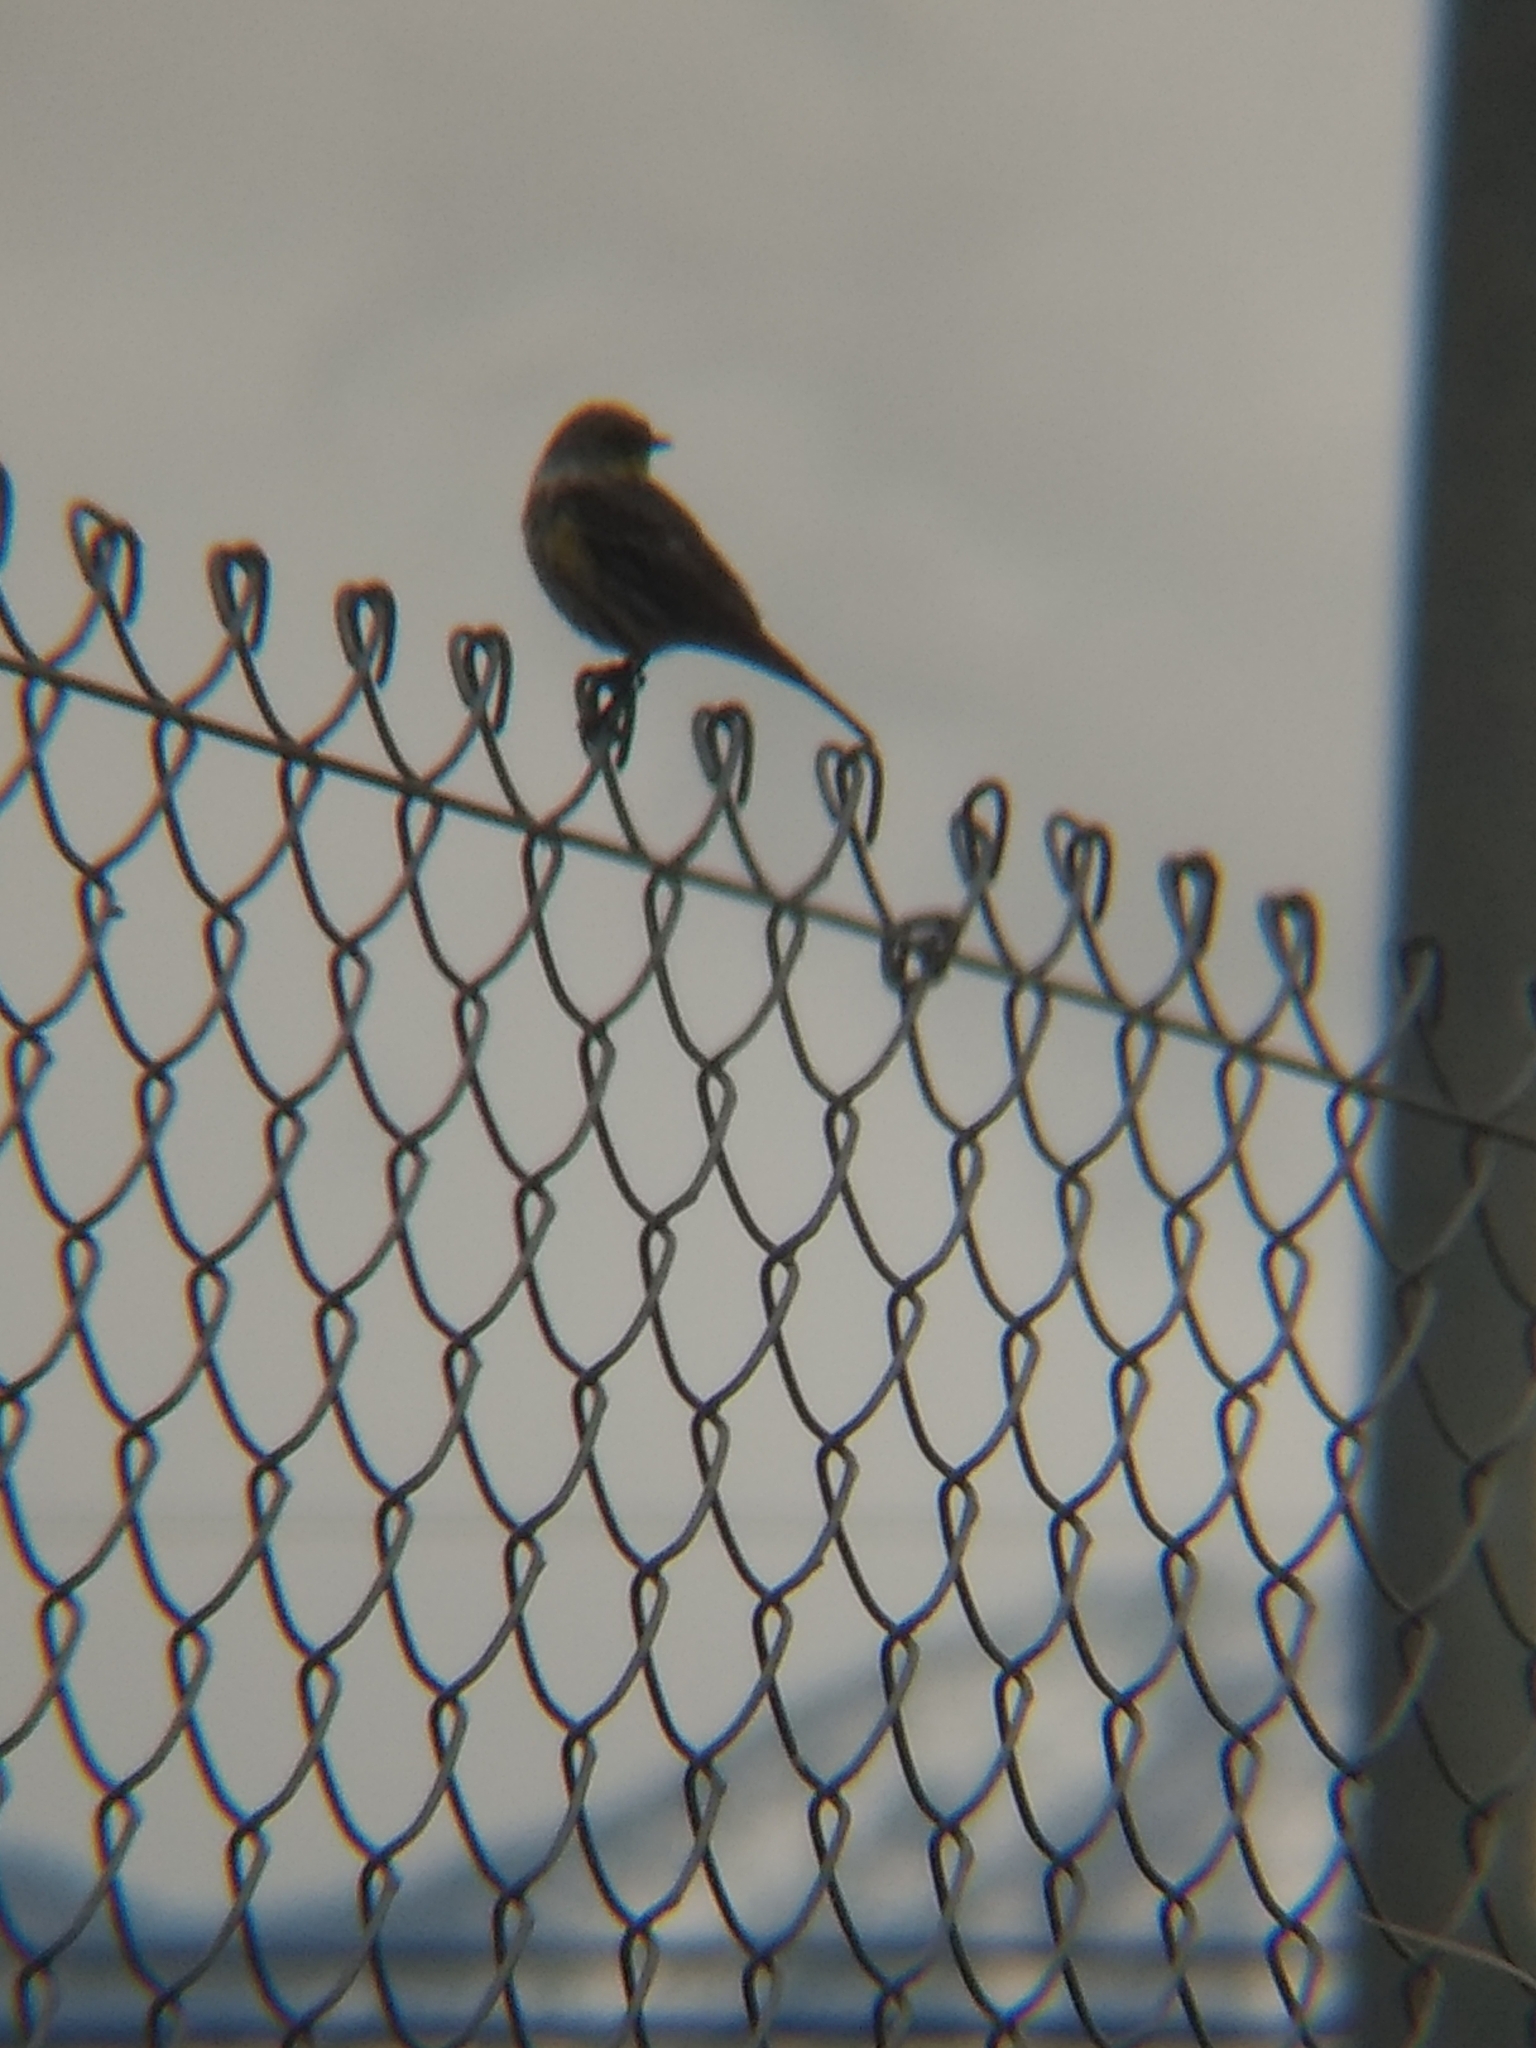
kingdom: Animalia
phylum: Chordata
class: Aves
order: Passeriformes
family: Parulidae
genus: Setophaga
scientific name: Setophaga coronata
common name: Myrtle warbler
